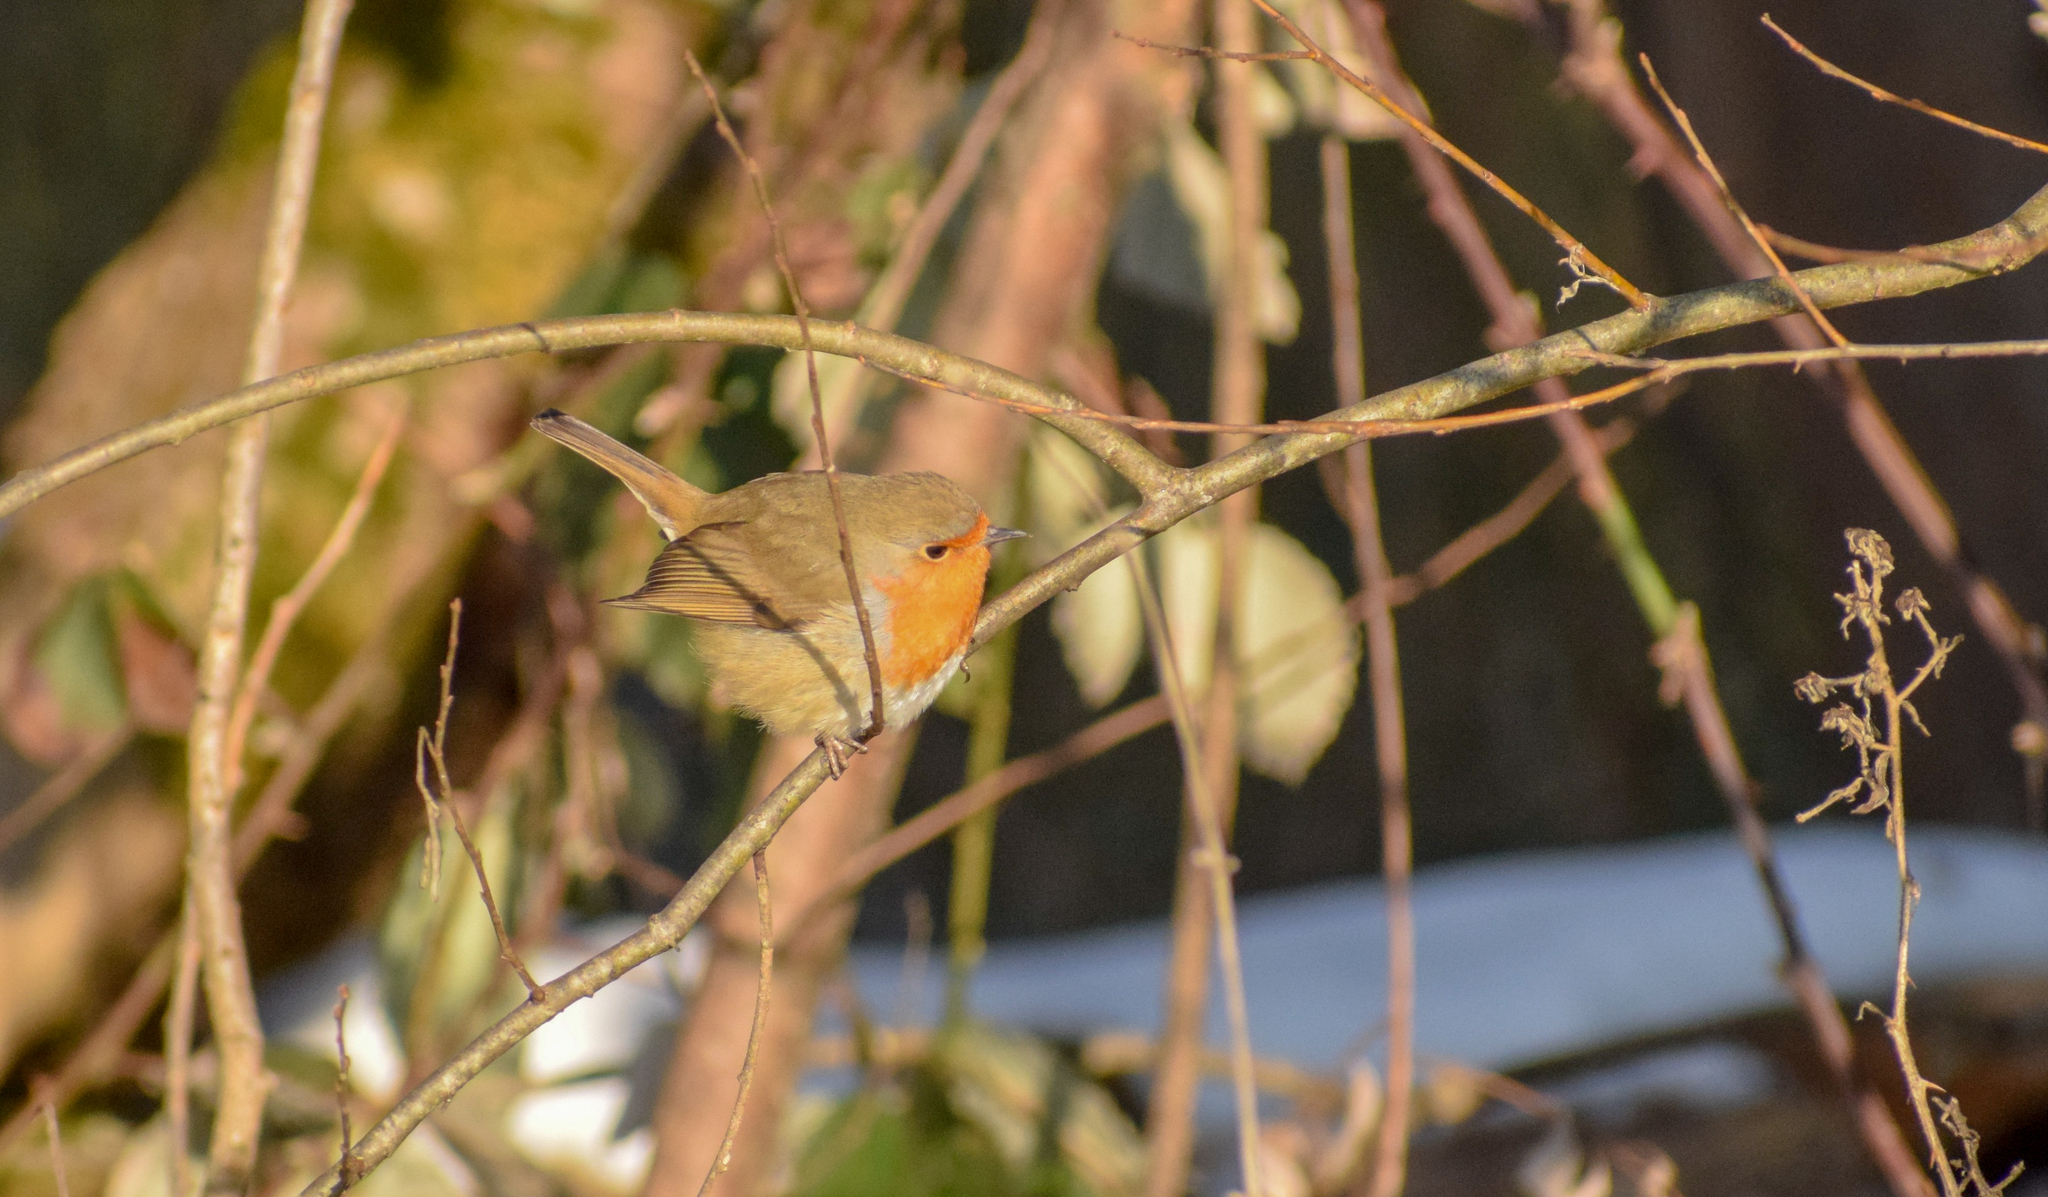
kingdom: Animalia
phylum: Chordata
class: Aves
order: Passeriformes
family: Muscicapidae
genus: Erithacus
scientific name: Erithacus rubecula
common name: European robin
